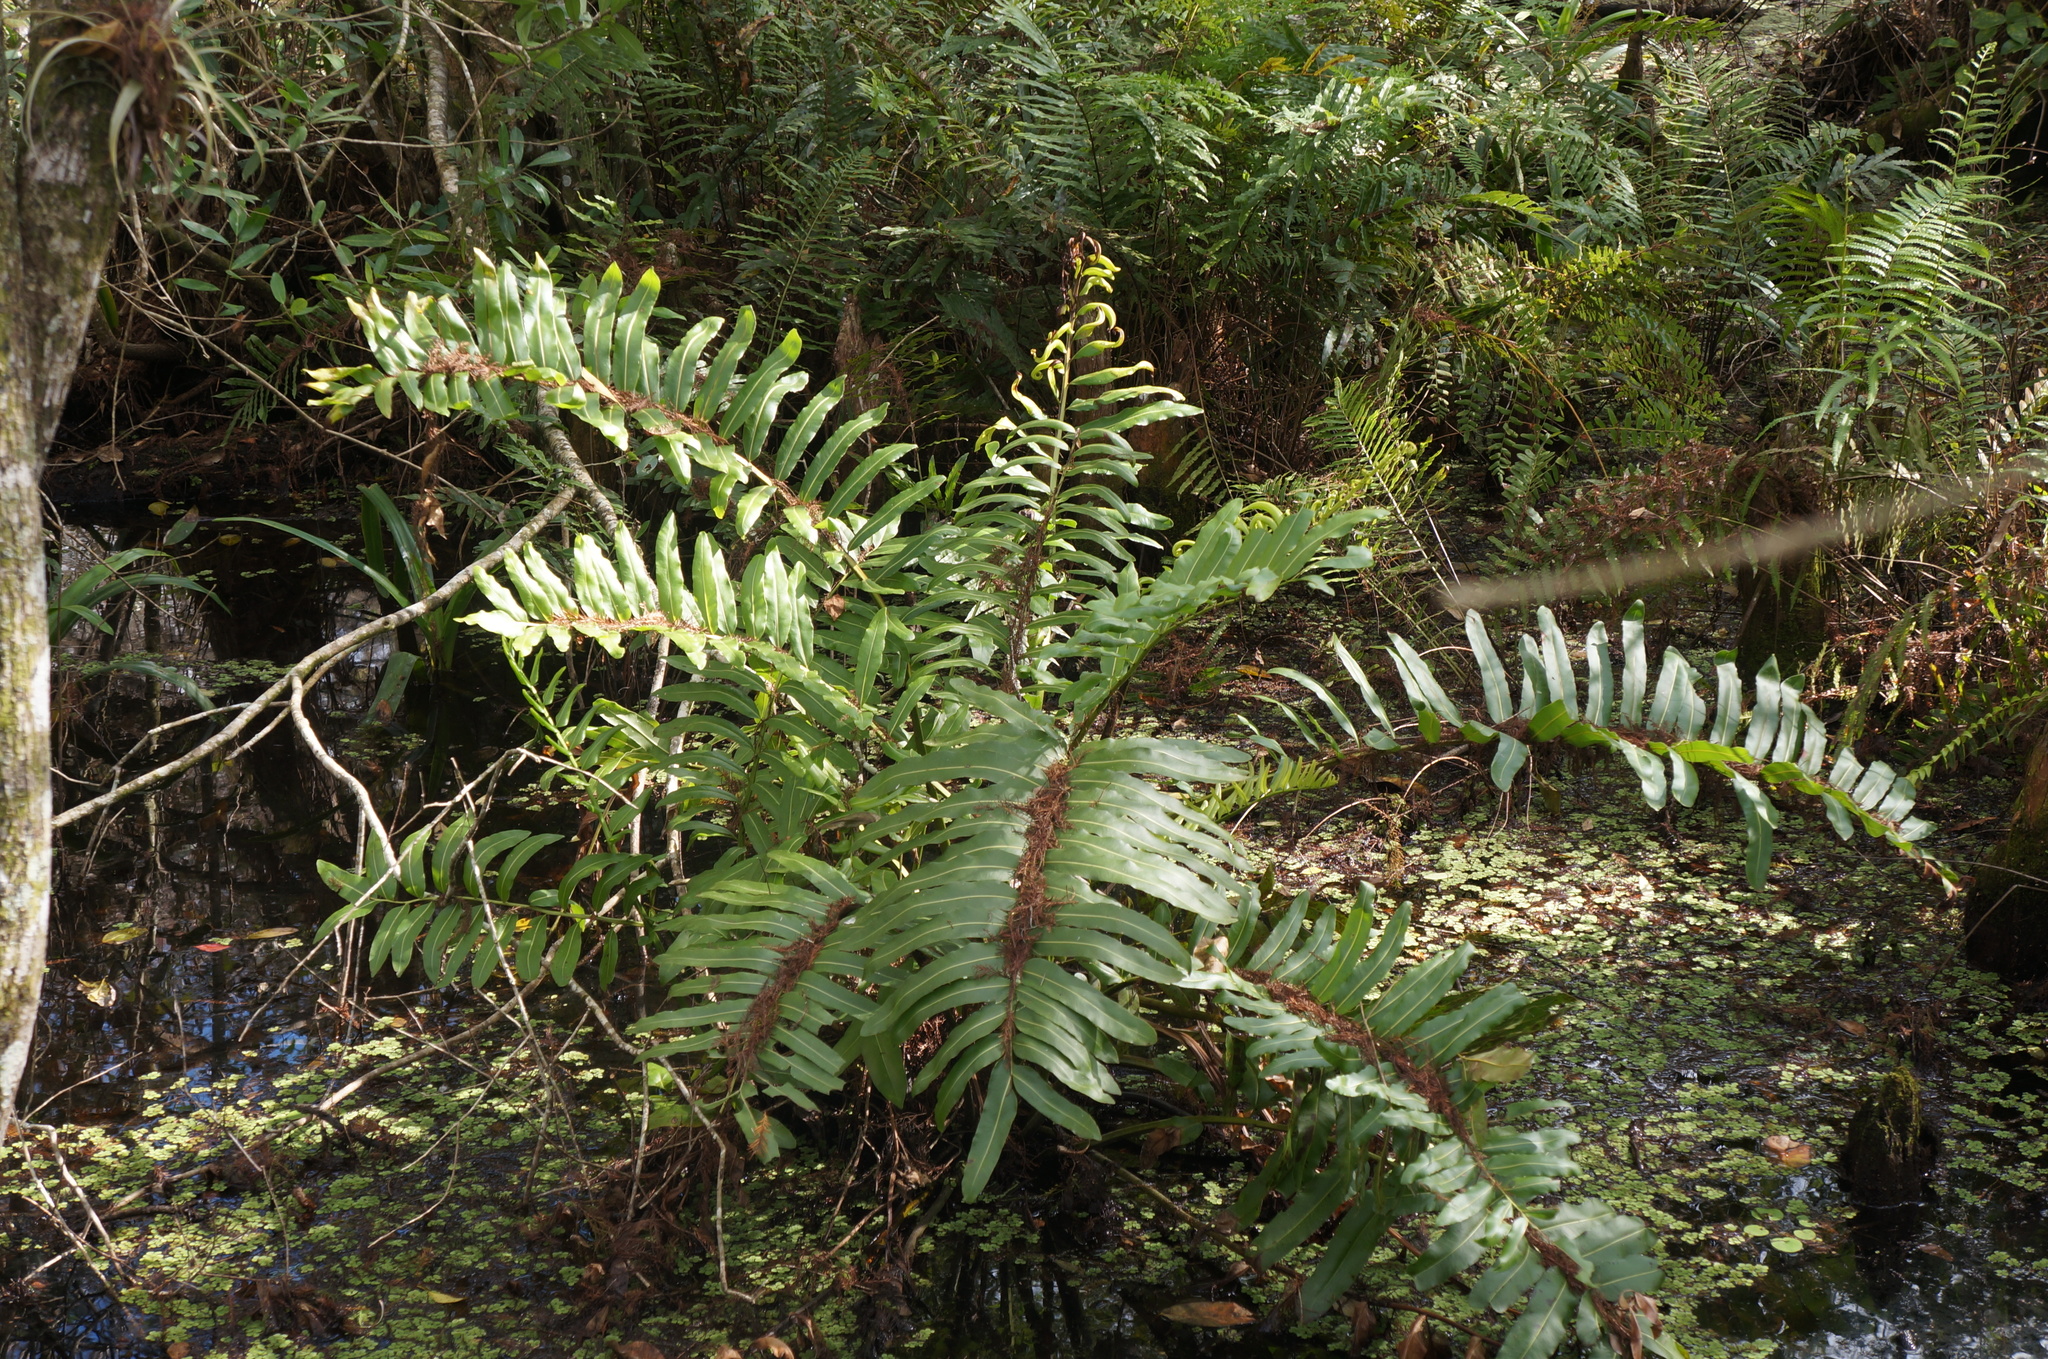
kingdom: Plantae
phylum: Tracheophyta
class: Polypodiopsida
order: Polypodiales
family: Pteridaceae
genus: Acrostichum
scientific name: Acrostichum danaeifolium
